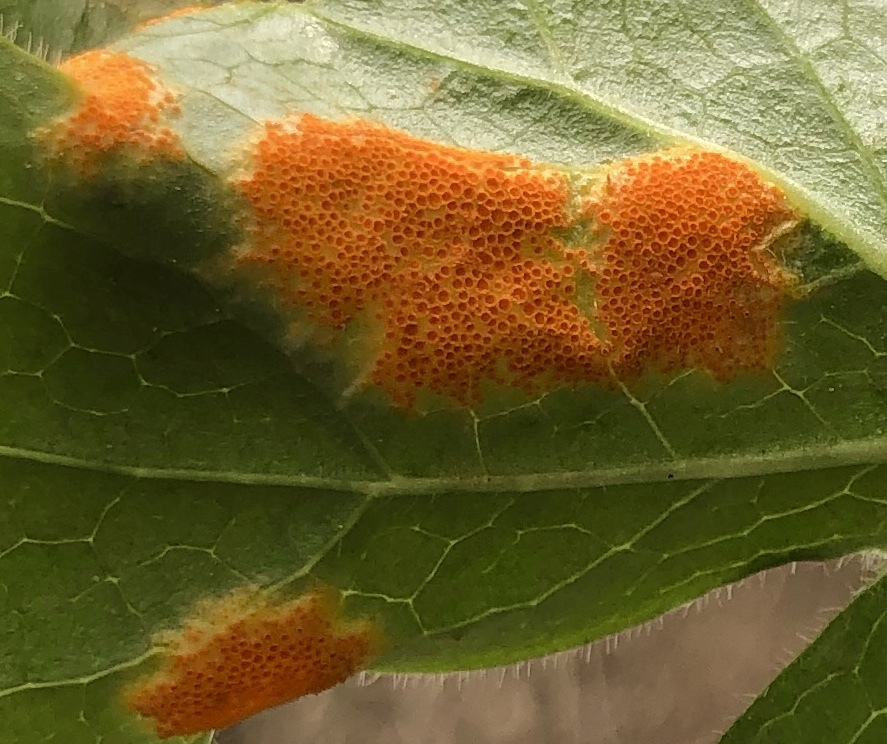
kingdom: Fungi
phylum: Basidiomycota
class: Pucciniomycetes
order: Pucciniales
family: Pucciniaceae
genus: Puccinia
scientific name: Puccinia podophylli
